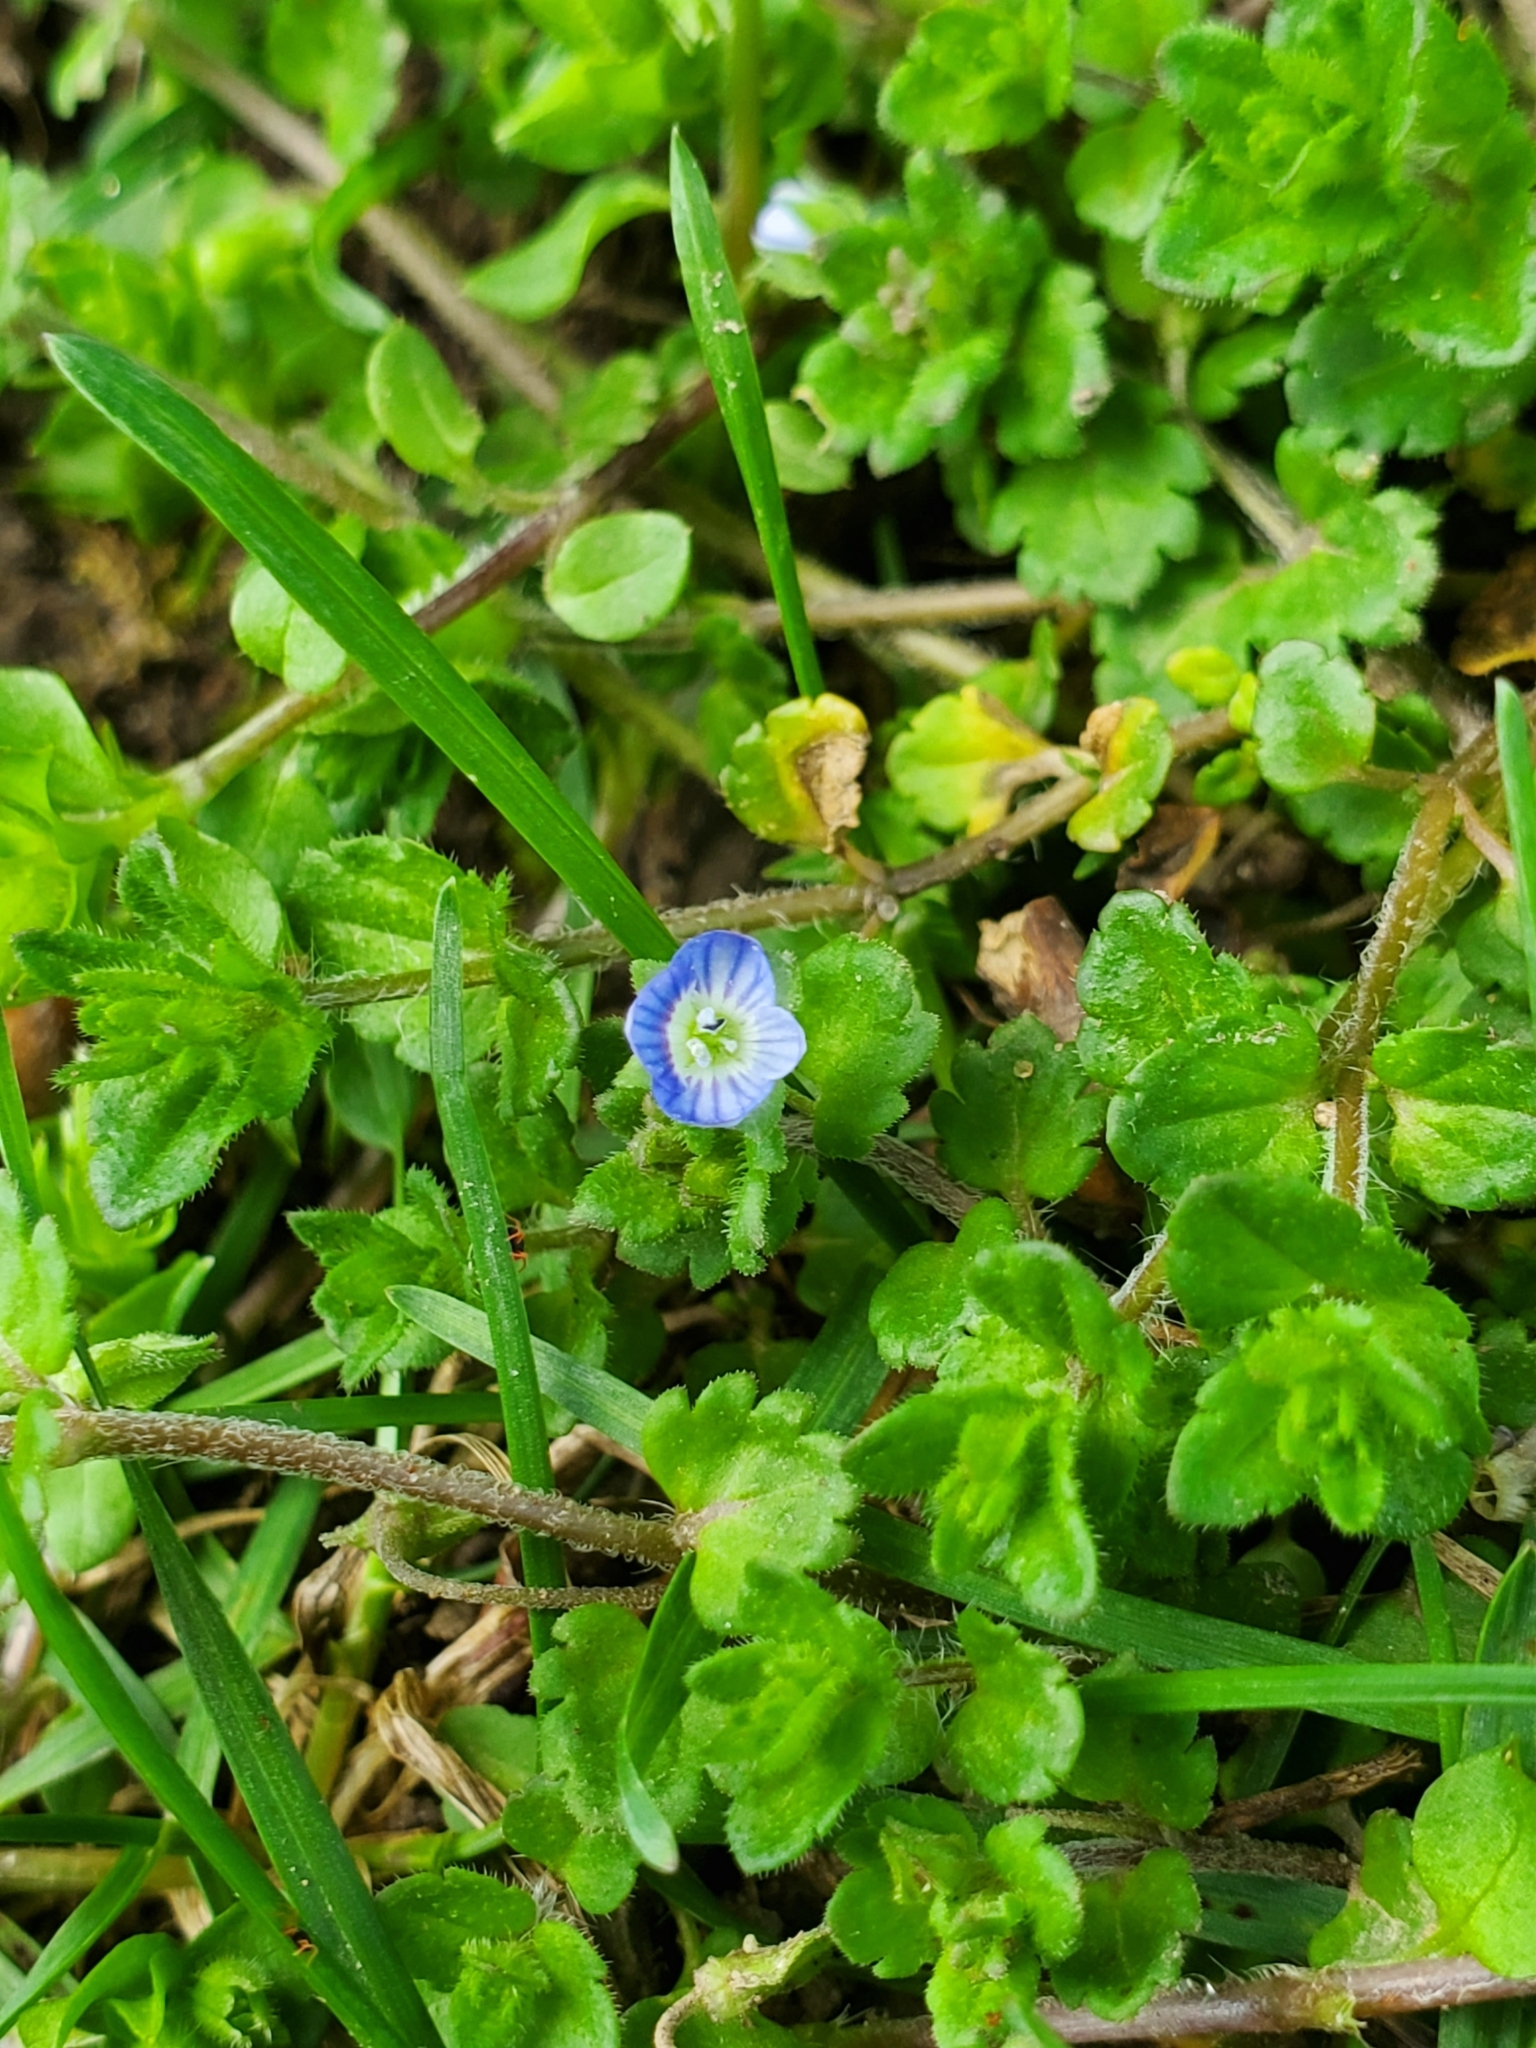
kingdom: Plantae
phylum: Tracheophyta
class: Magnoliopsida
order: Lamiales
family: Plantaginaceae
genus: Veronica
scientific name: Veronica persica
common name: Common field-speedwell
